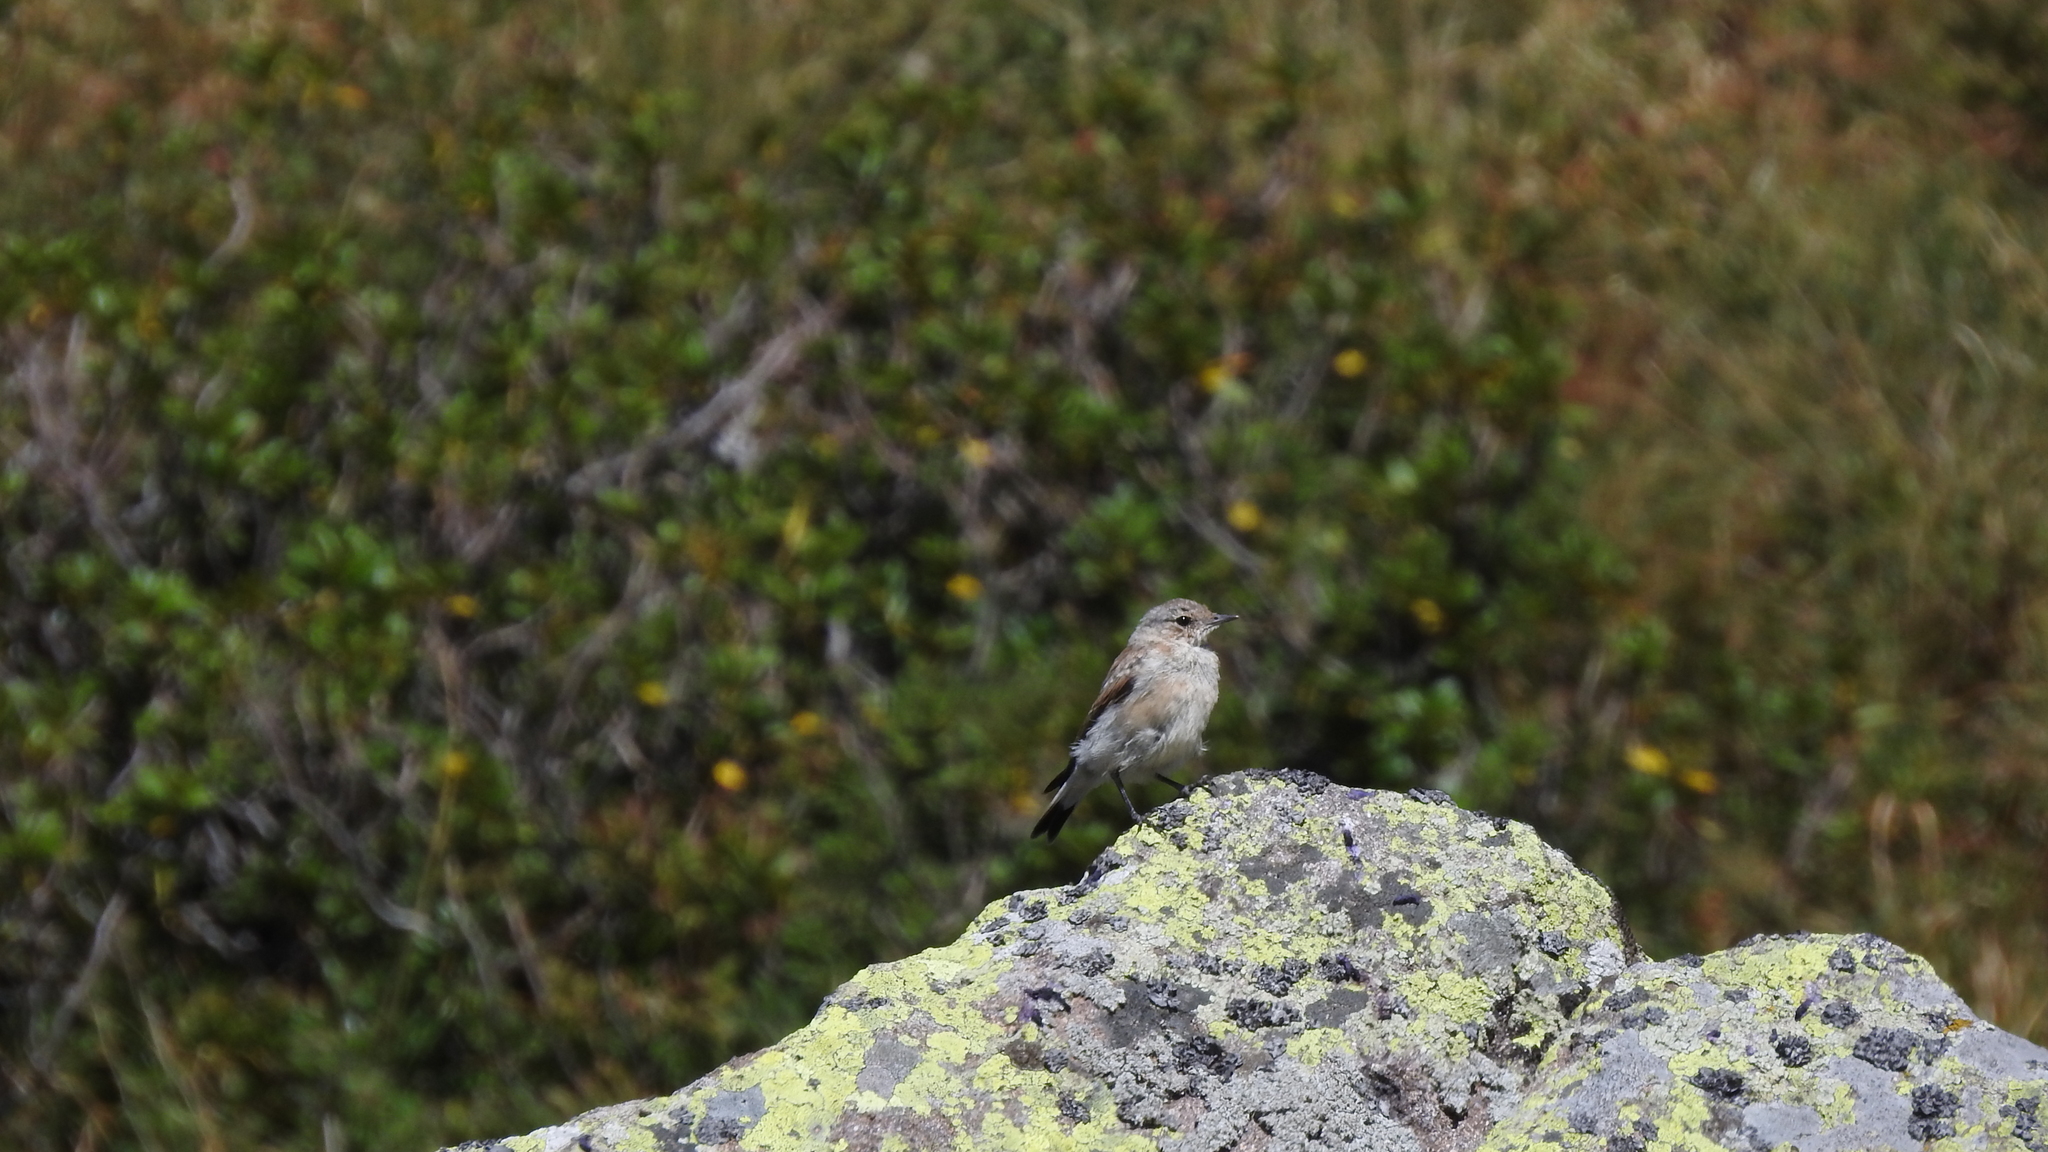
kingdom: Animalia
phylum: Chordata
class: Aves
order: Passeriformes
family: Muscicapidae
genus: Oenanthe
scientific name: Oenanthe oenanthe
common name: Northern wheatear
